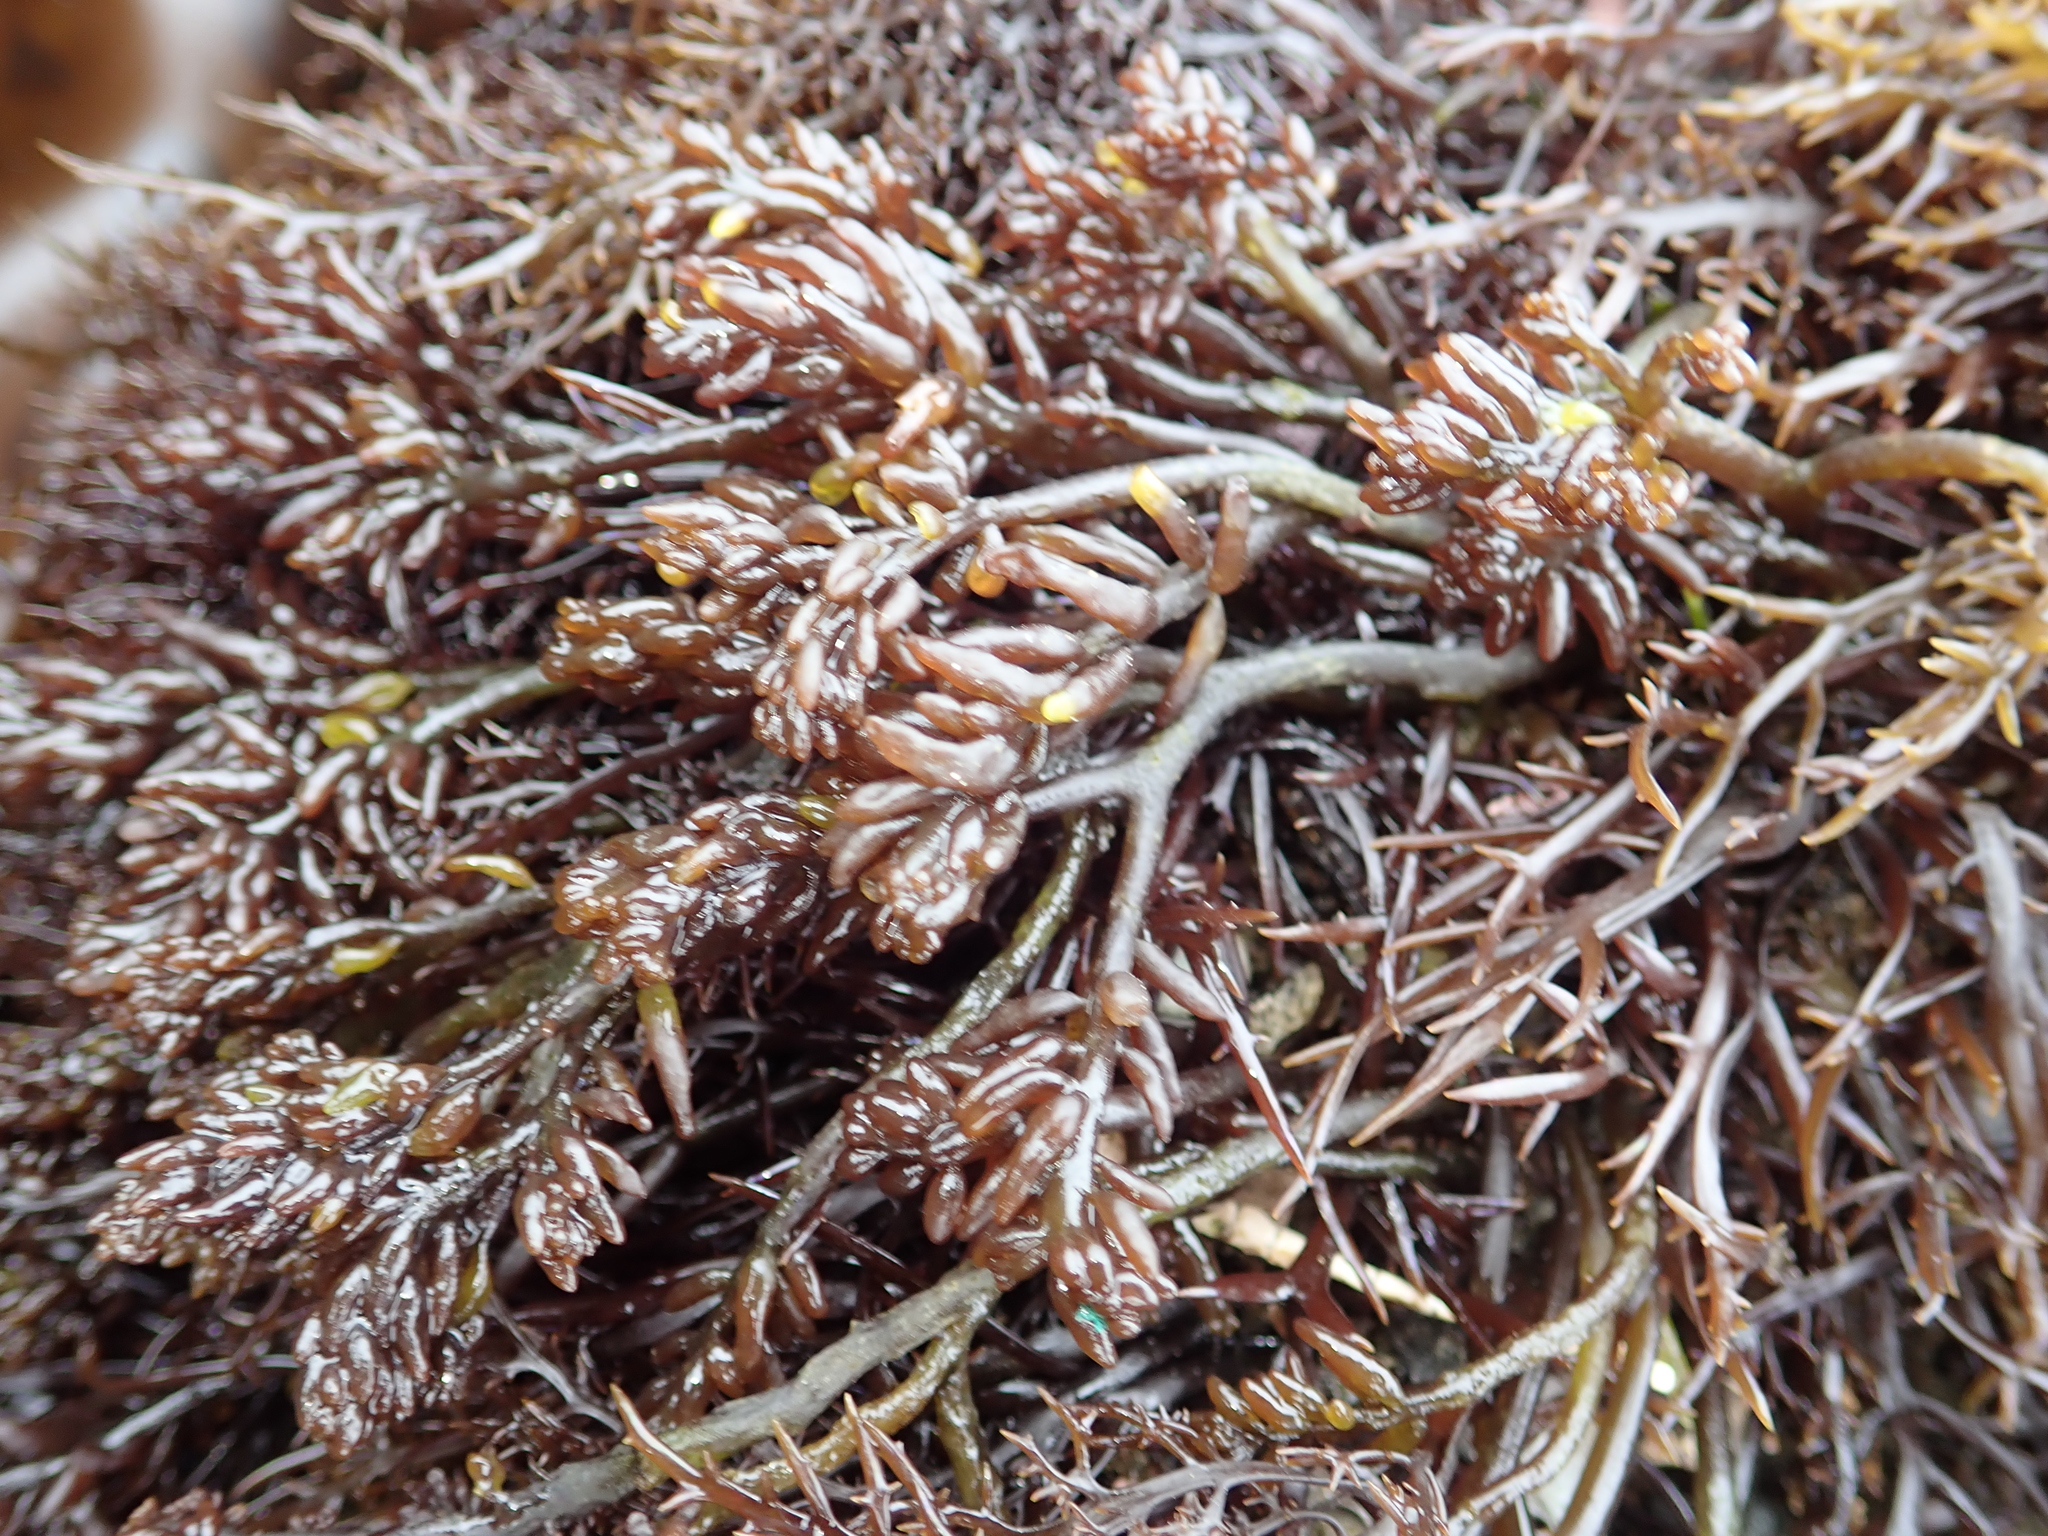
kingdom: Plantae
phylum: Rhodophyta
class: Florideophyceae
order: Rhodymeniales
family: Champiaceae
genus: Neogastroclonium
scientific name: Neogastroclonium subarticulatum
